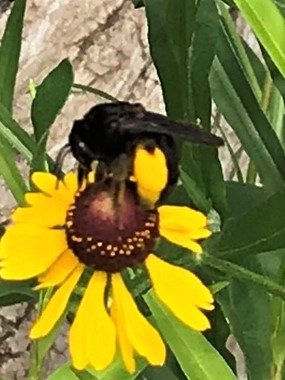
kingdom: Animalia
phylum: Arthropoda
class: Insecta
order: Hymenoptera
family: Apidae
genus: Melissodes
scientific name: Melissodes bimaculatus
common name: Two-spotted long-horned bee
